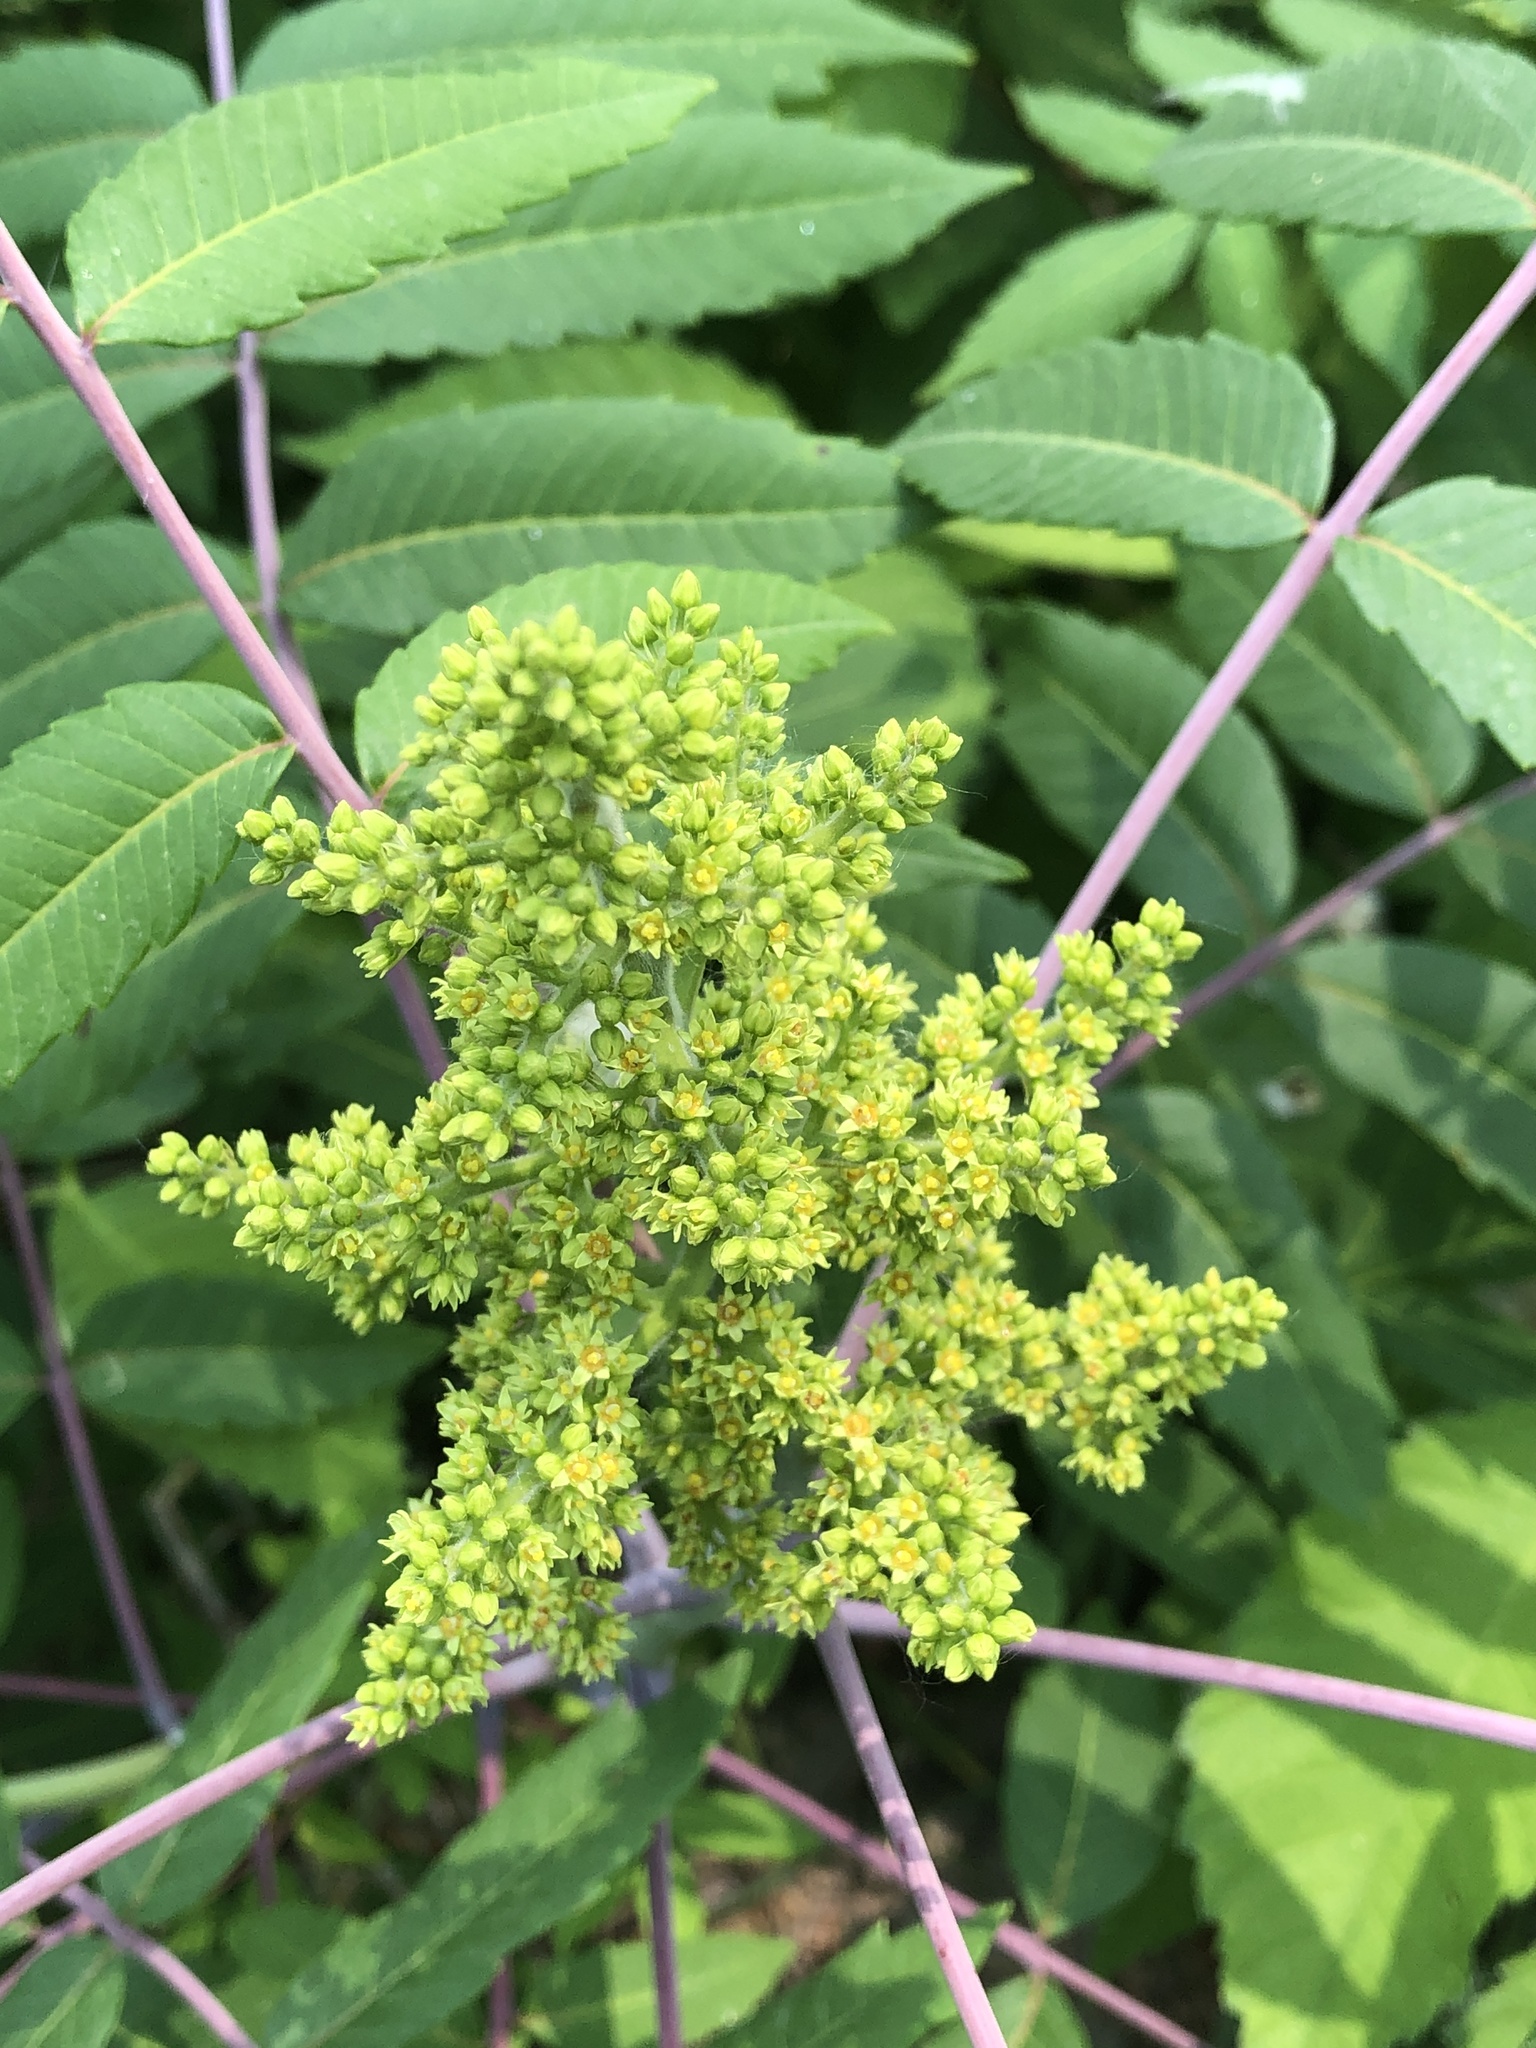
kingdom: Plantae
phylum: Tracheophyta
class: Magnoliopsida
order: Sapindales
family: Anacardiaceae
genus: Rhus
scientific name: Rhus glabra
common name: Scarlet sumac
